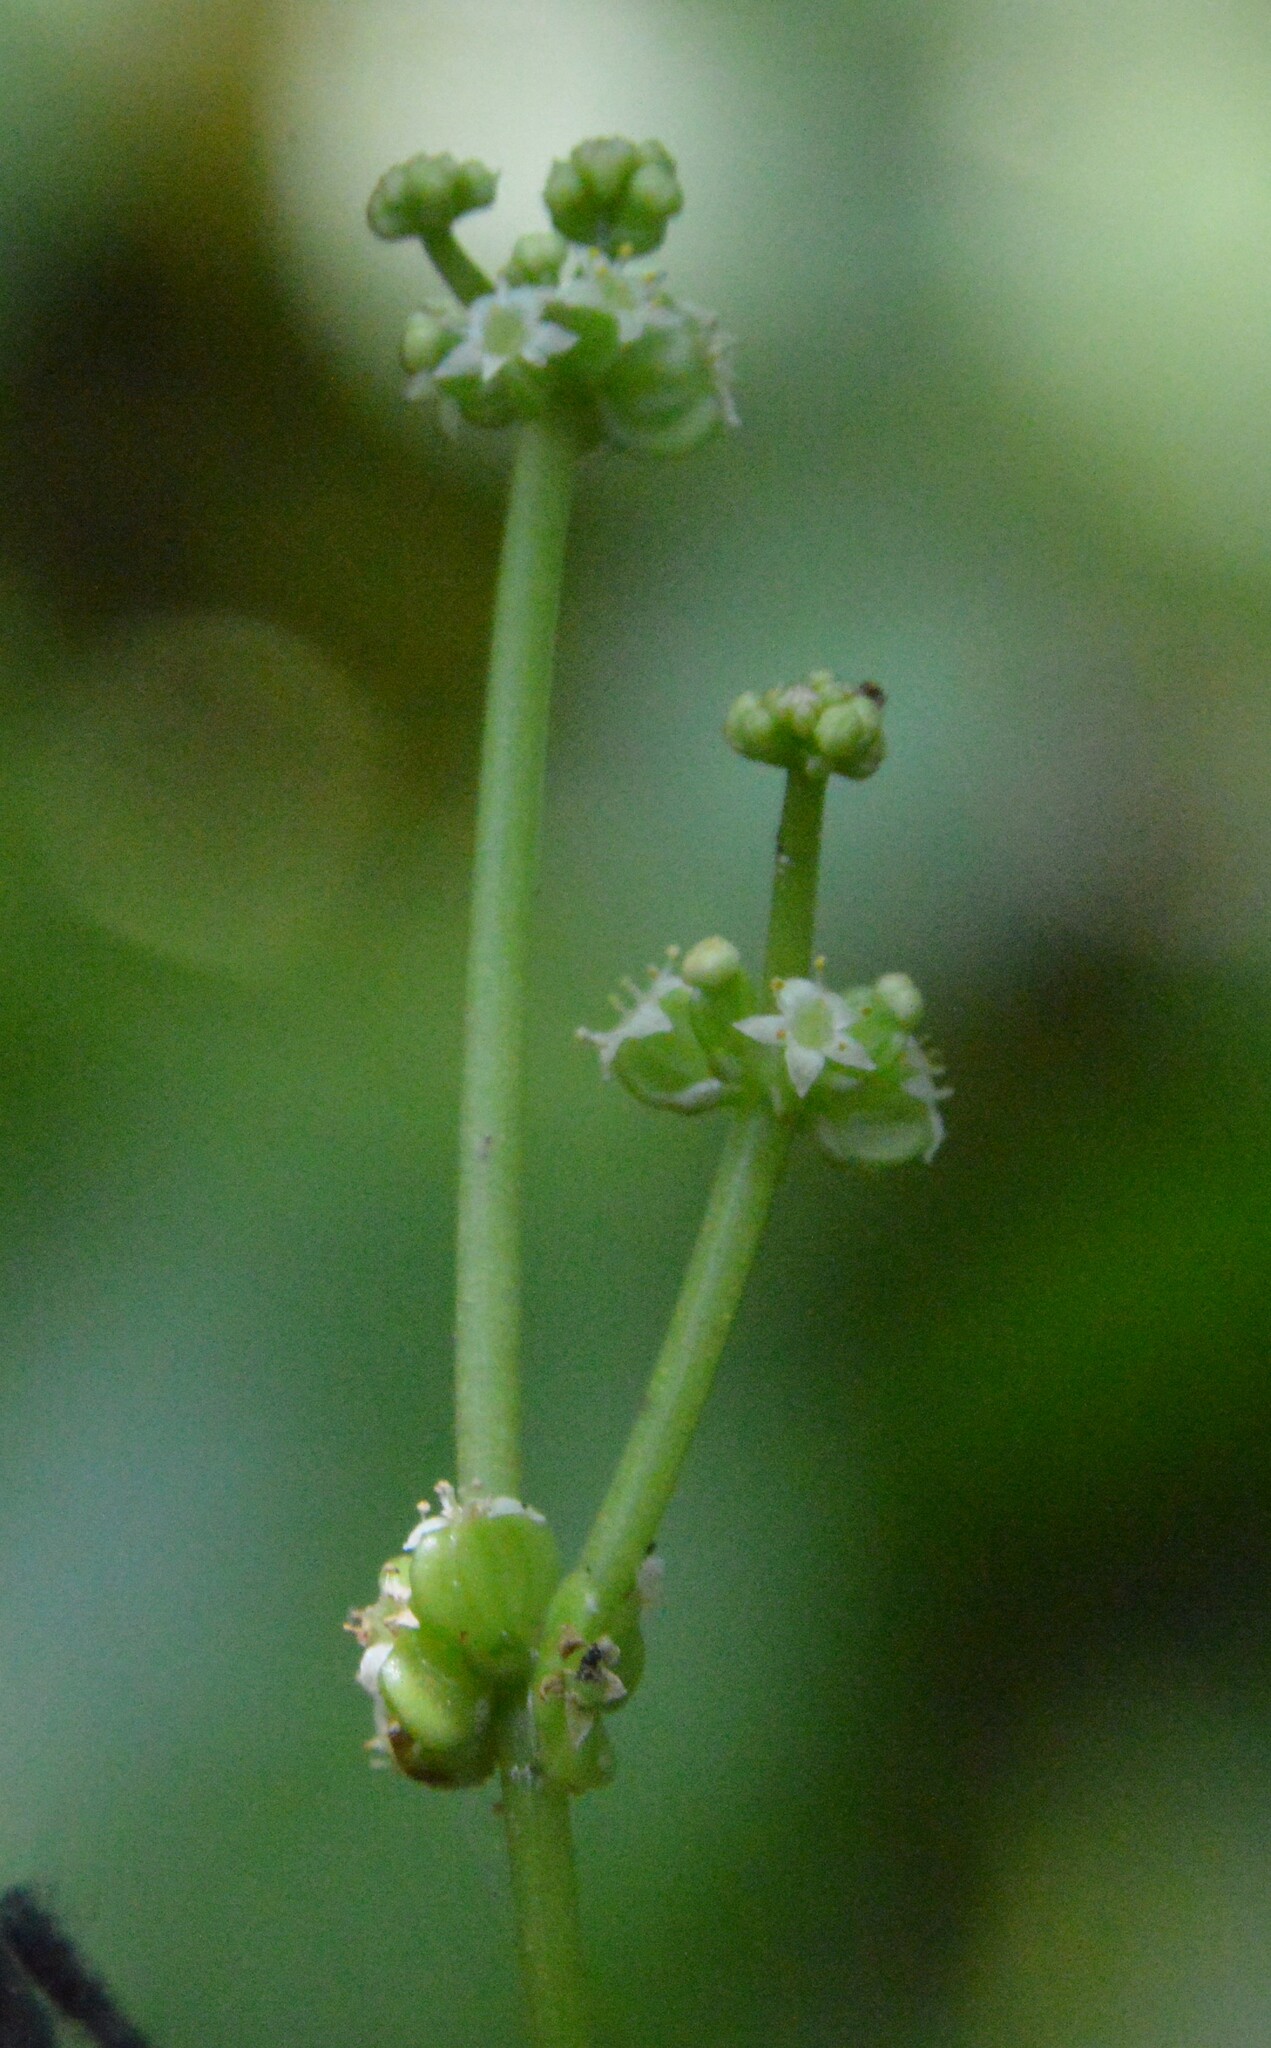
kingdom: Plantae
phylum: Tracheophyta
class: Magnoliopsida
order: Apiales
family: Araliaceae
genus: Hydrocotyle
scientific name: Hydrocotyle verticillata
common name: Whorled marshpennywort
